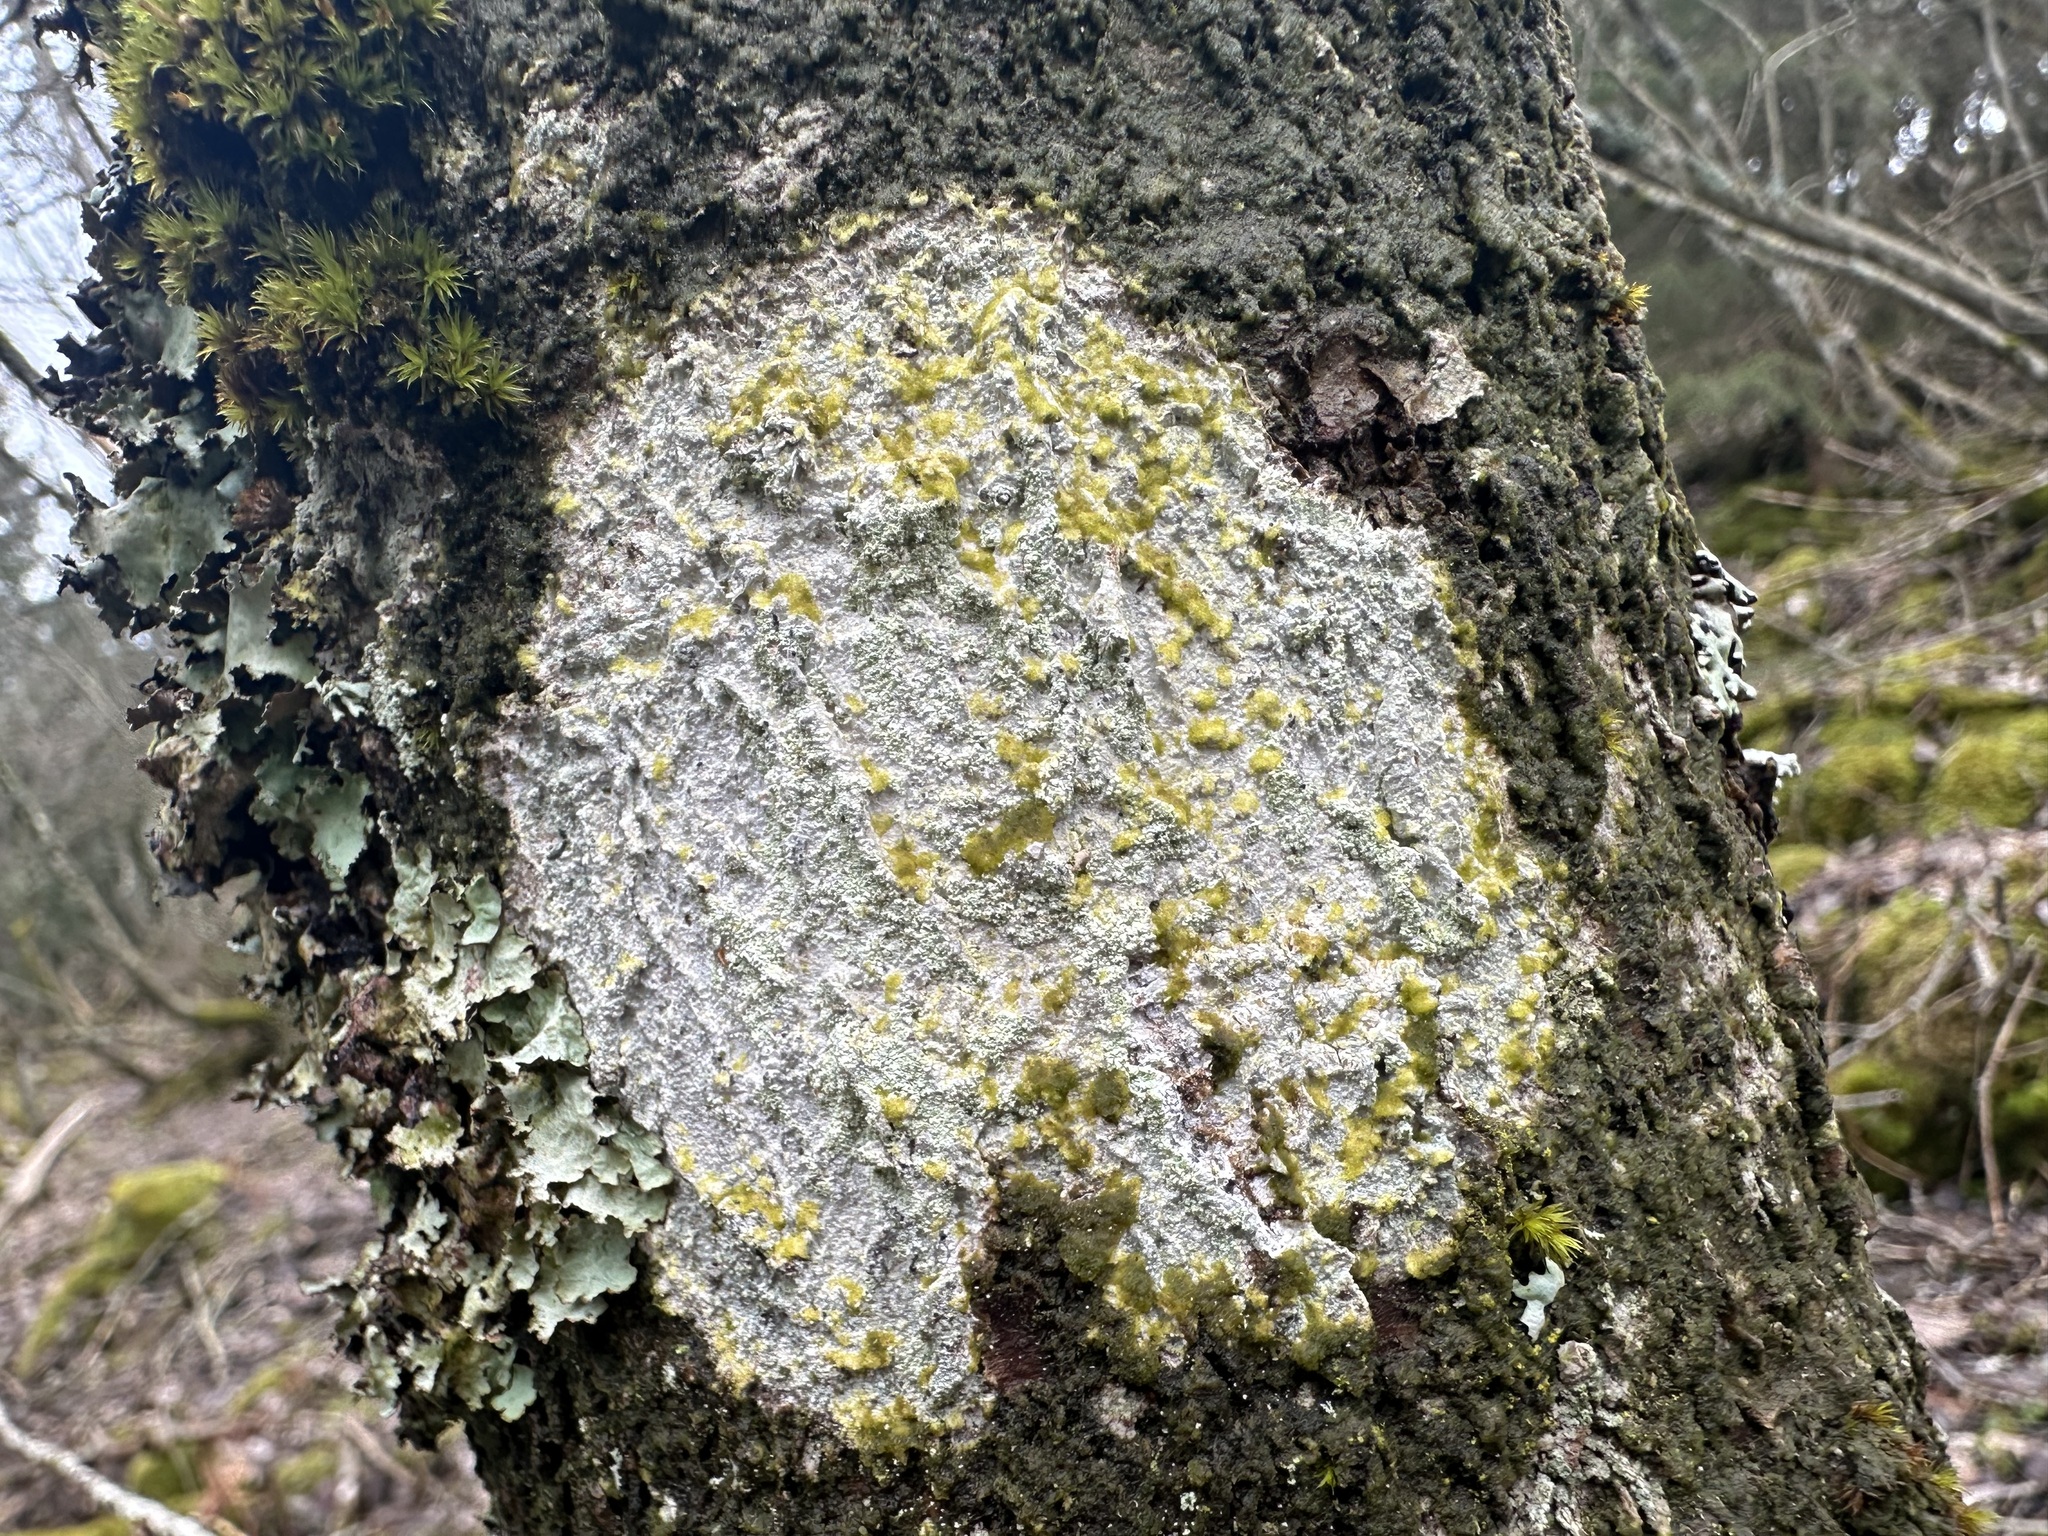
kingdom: Fungi
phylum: Ascomycota
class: Lecanoromycetes
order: Ostropales
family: Phlyctidaceae
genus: Phlyctis
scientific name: Phlyctis argena
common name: Whitewash lichen
